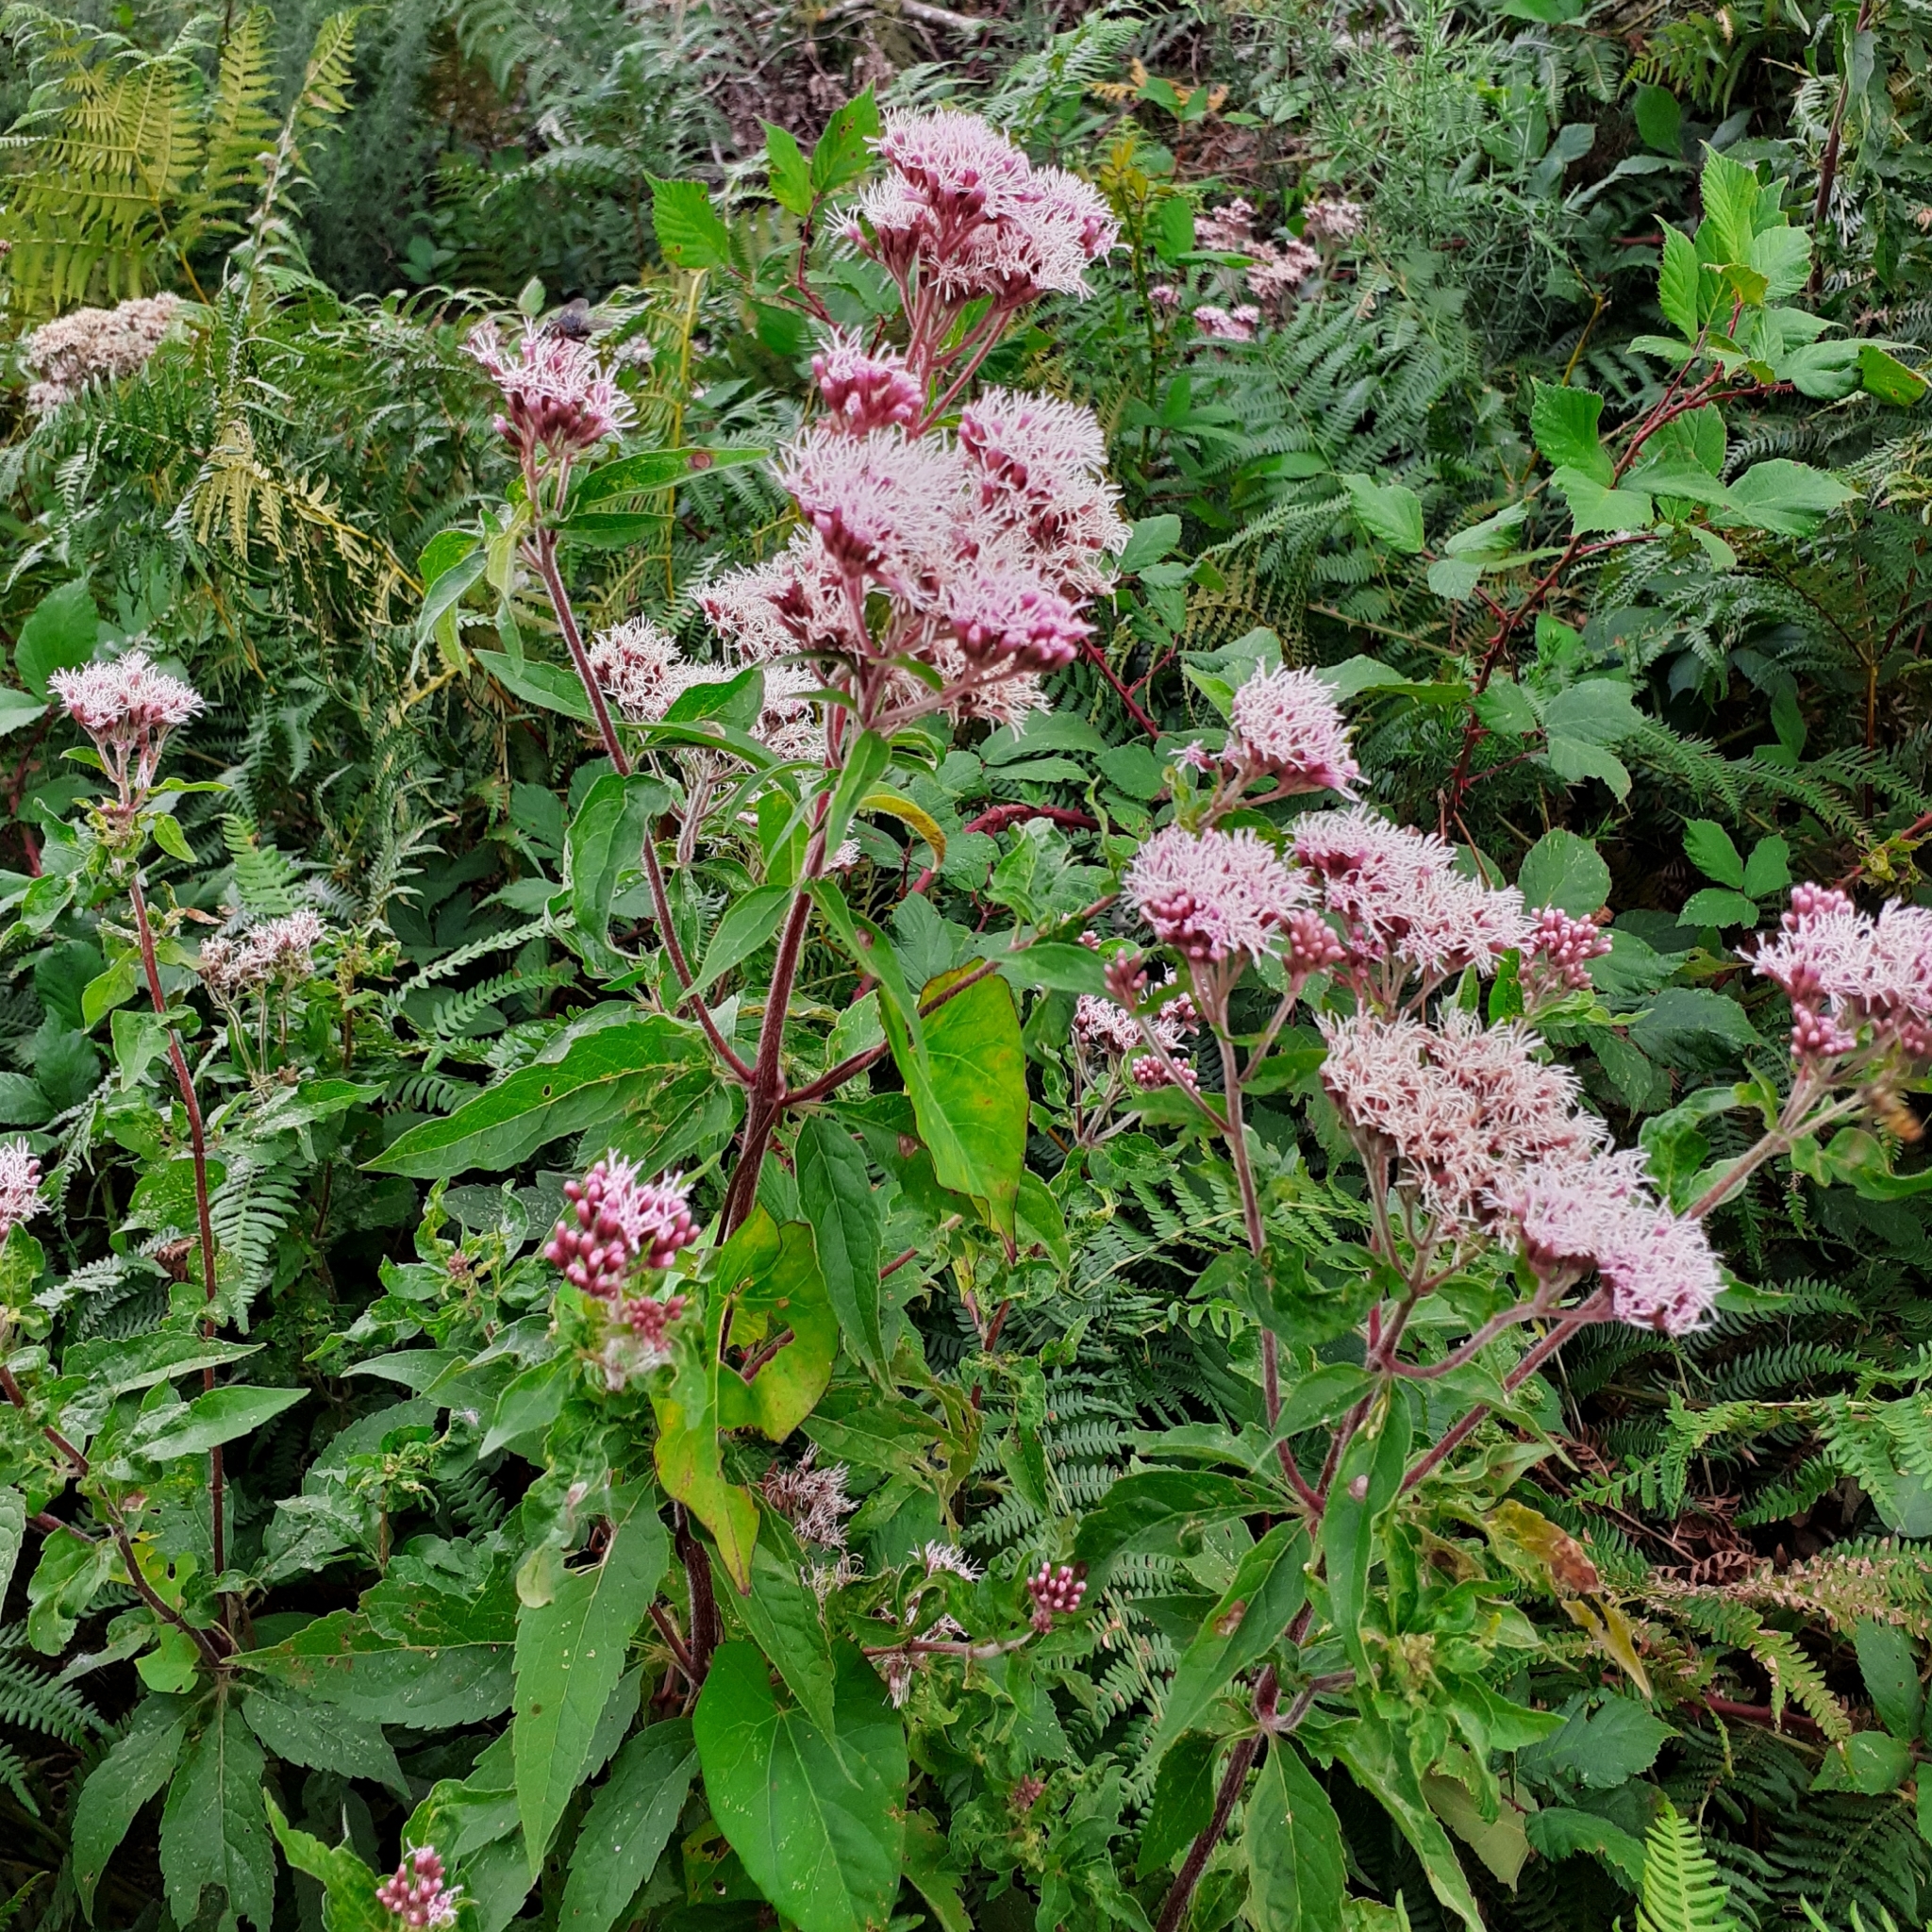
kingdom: Plantae
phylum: Tracheophyta
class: Magnoliopsida
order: Asterales
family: Asteraceae
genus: Eupatorium
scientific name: Eupatorium cannabinum
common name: Hemp-agrimony
